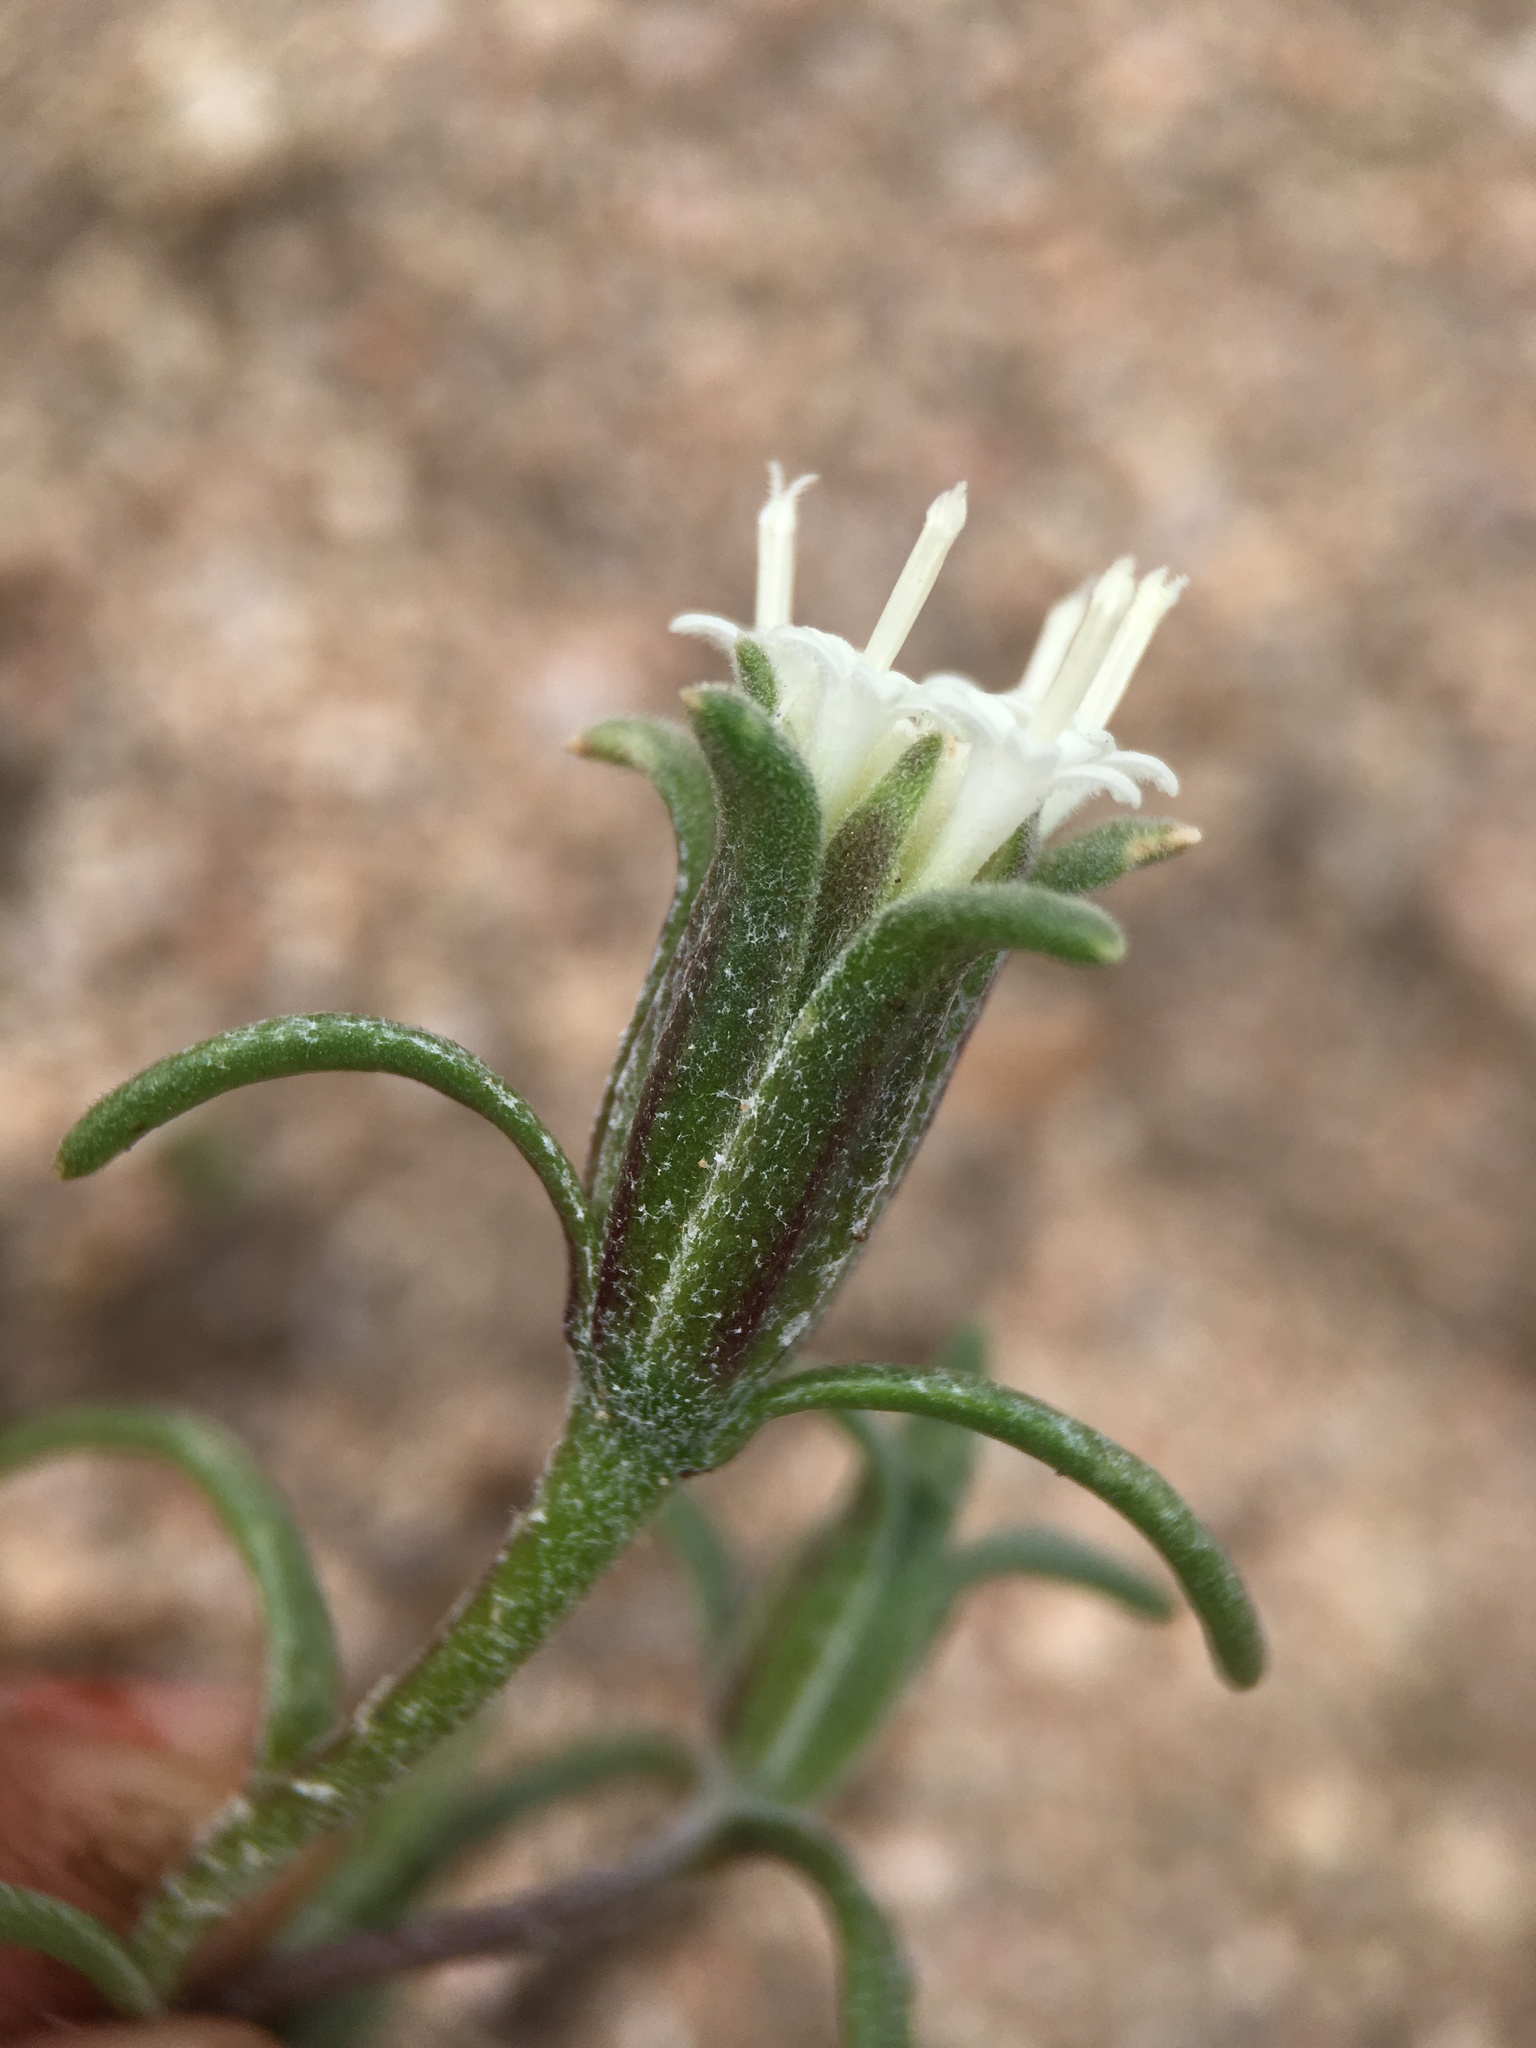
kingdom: Plantae
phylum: Tracheophyta
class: Magnoliopsida
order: Asterales
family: Asteraceae
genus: Chaenactis
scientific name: Chaenactis xantiana
